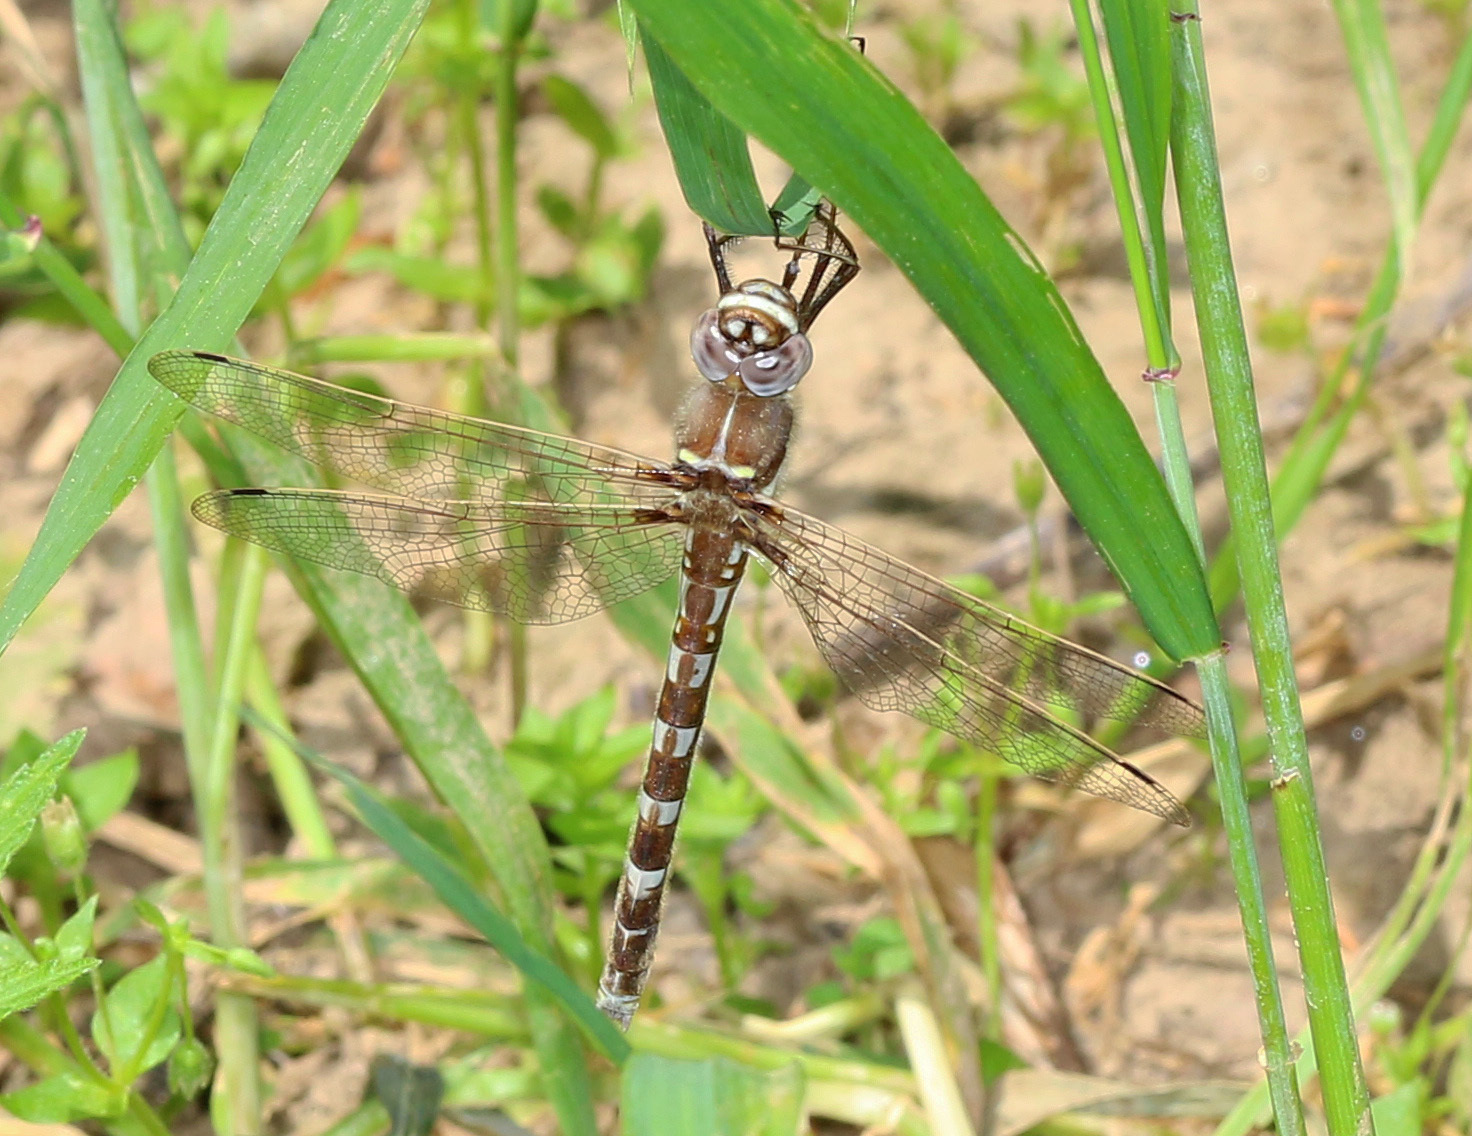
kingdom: Animalia
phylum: Arthropoda
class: Insecta
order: Odonata
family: Macromiidae
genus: Didymops
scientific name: Didymops transversa
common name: Stream cruiser
